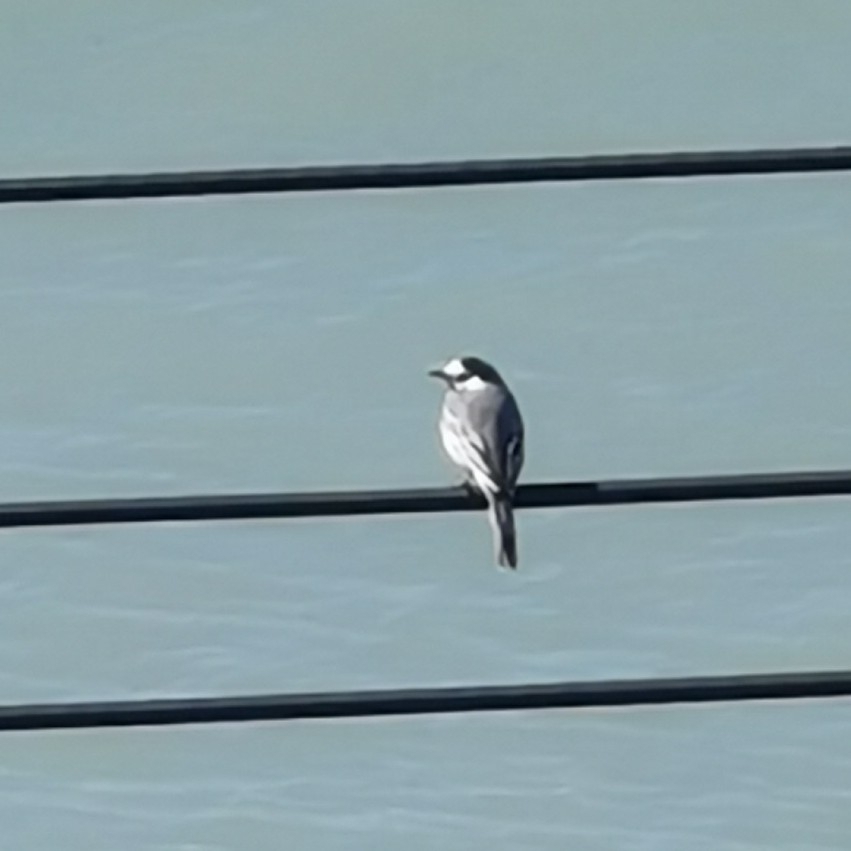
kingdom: Animalia
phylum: Chordata
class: Aves
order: Passeriformes
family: Motacillidae
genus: Motacilla
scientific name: Motacilla alba
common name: White wagtail
